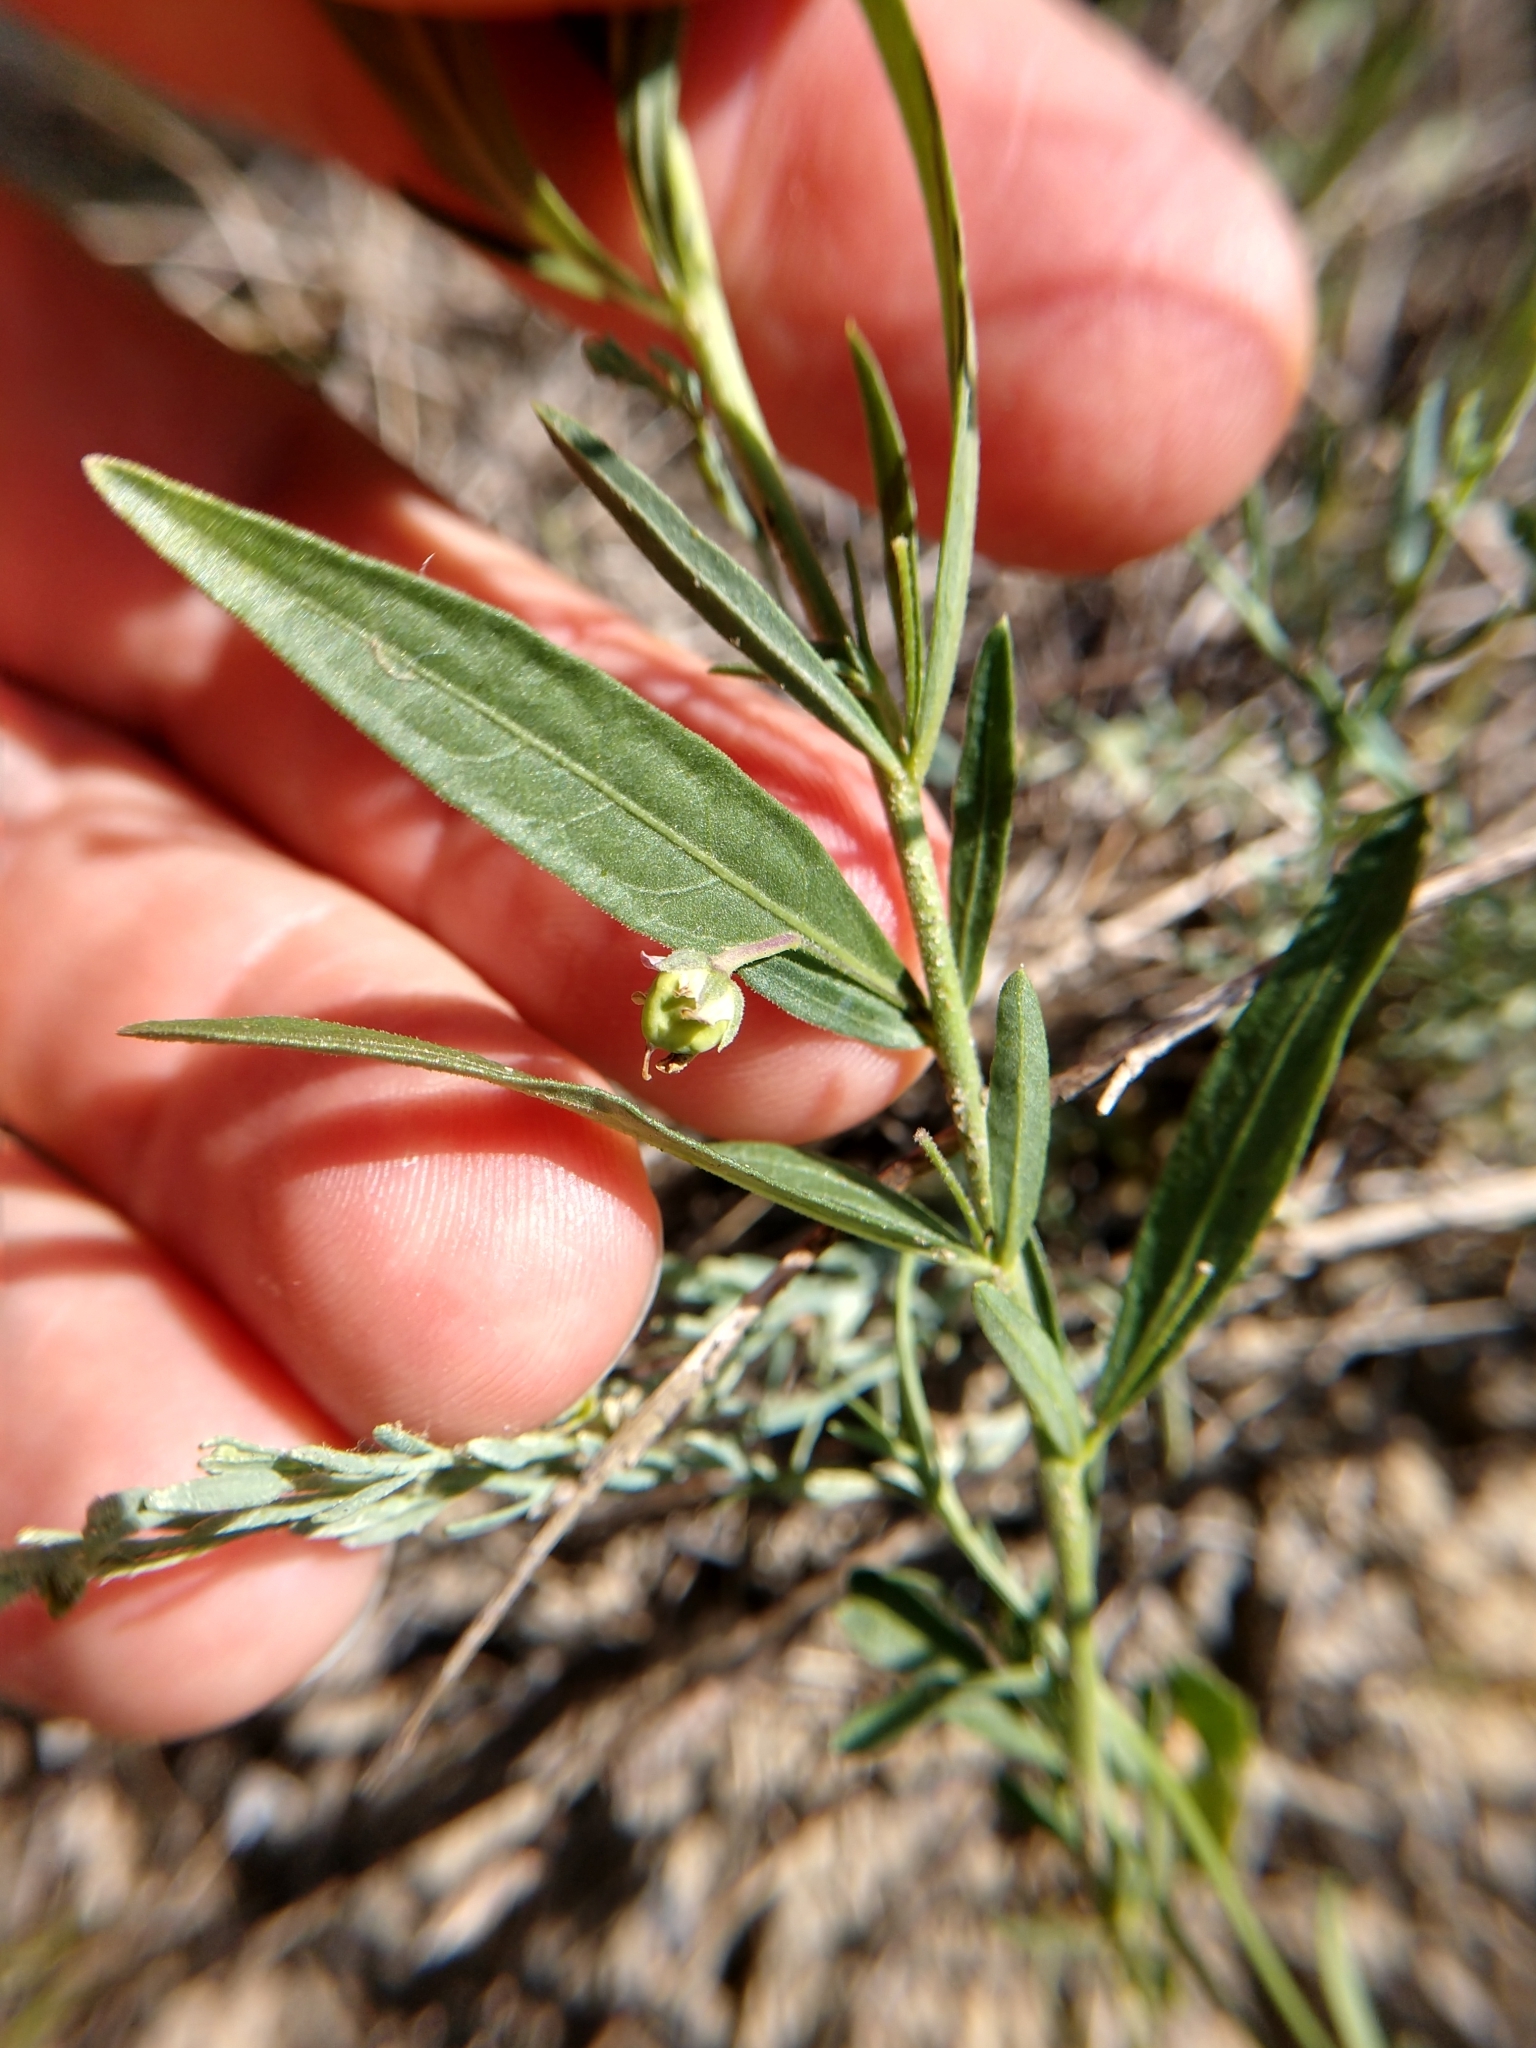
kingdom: Plantae
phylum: Tracheophyta
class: Magnoliopsida
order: Malpighiales
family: Violaceae
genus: Pombalia
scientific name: Pombalia verticillata
